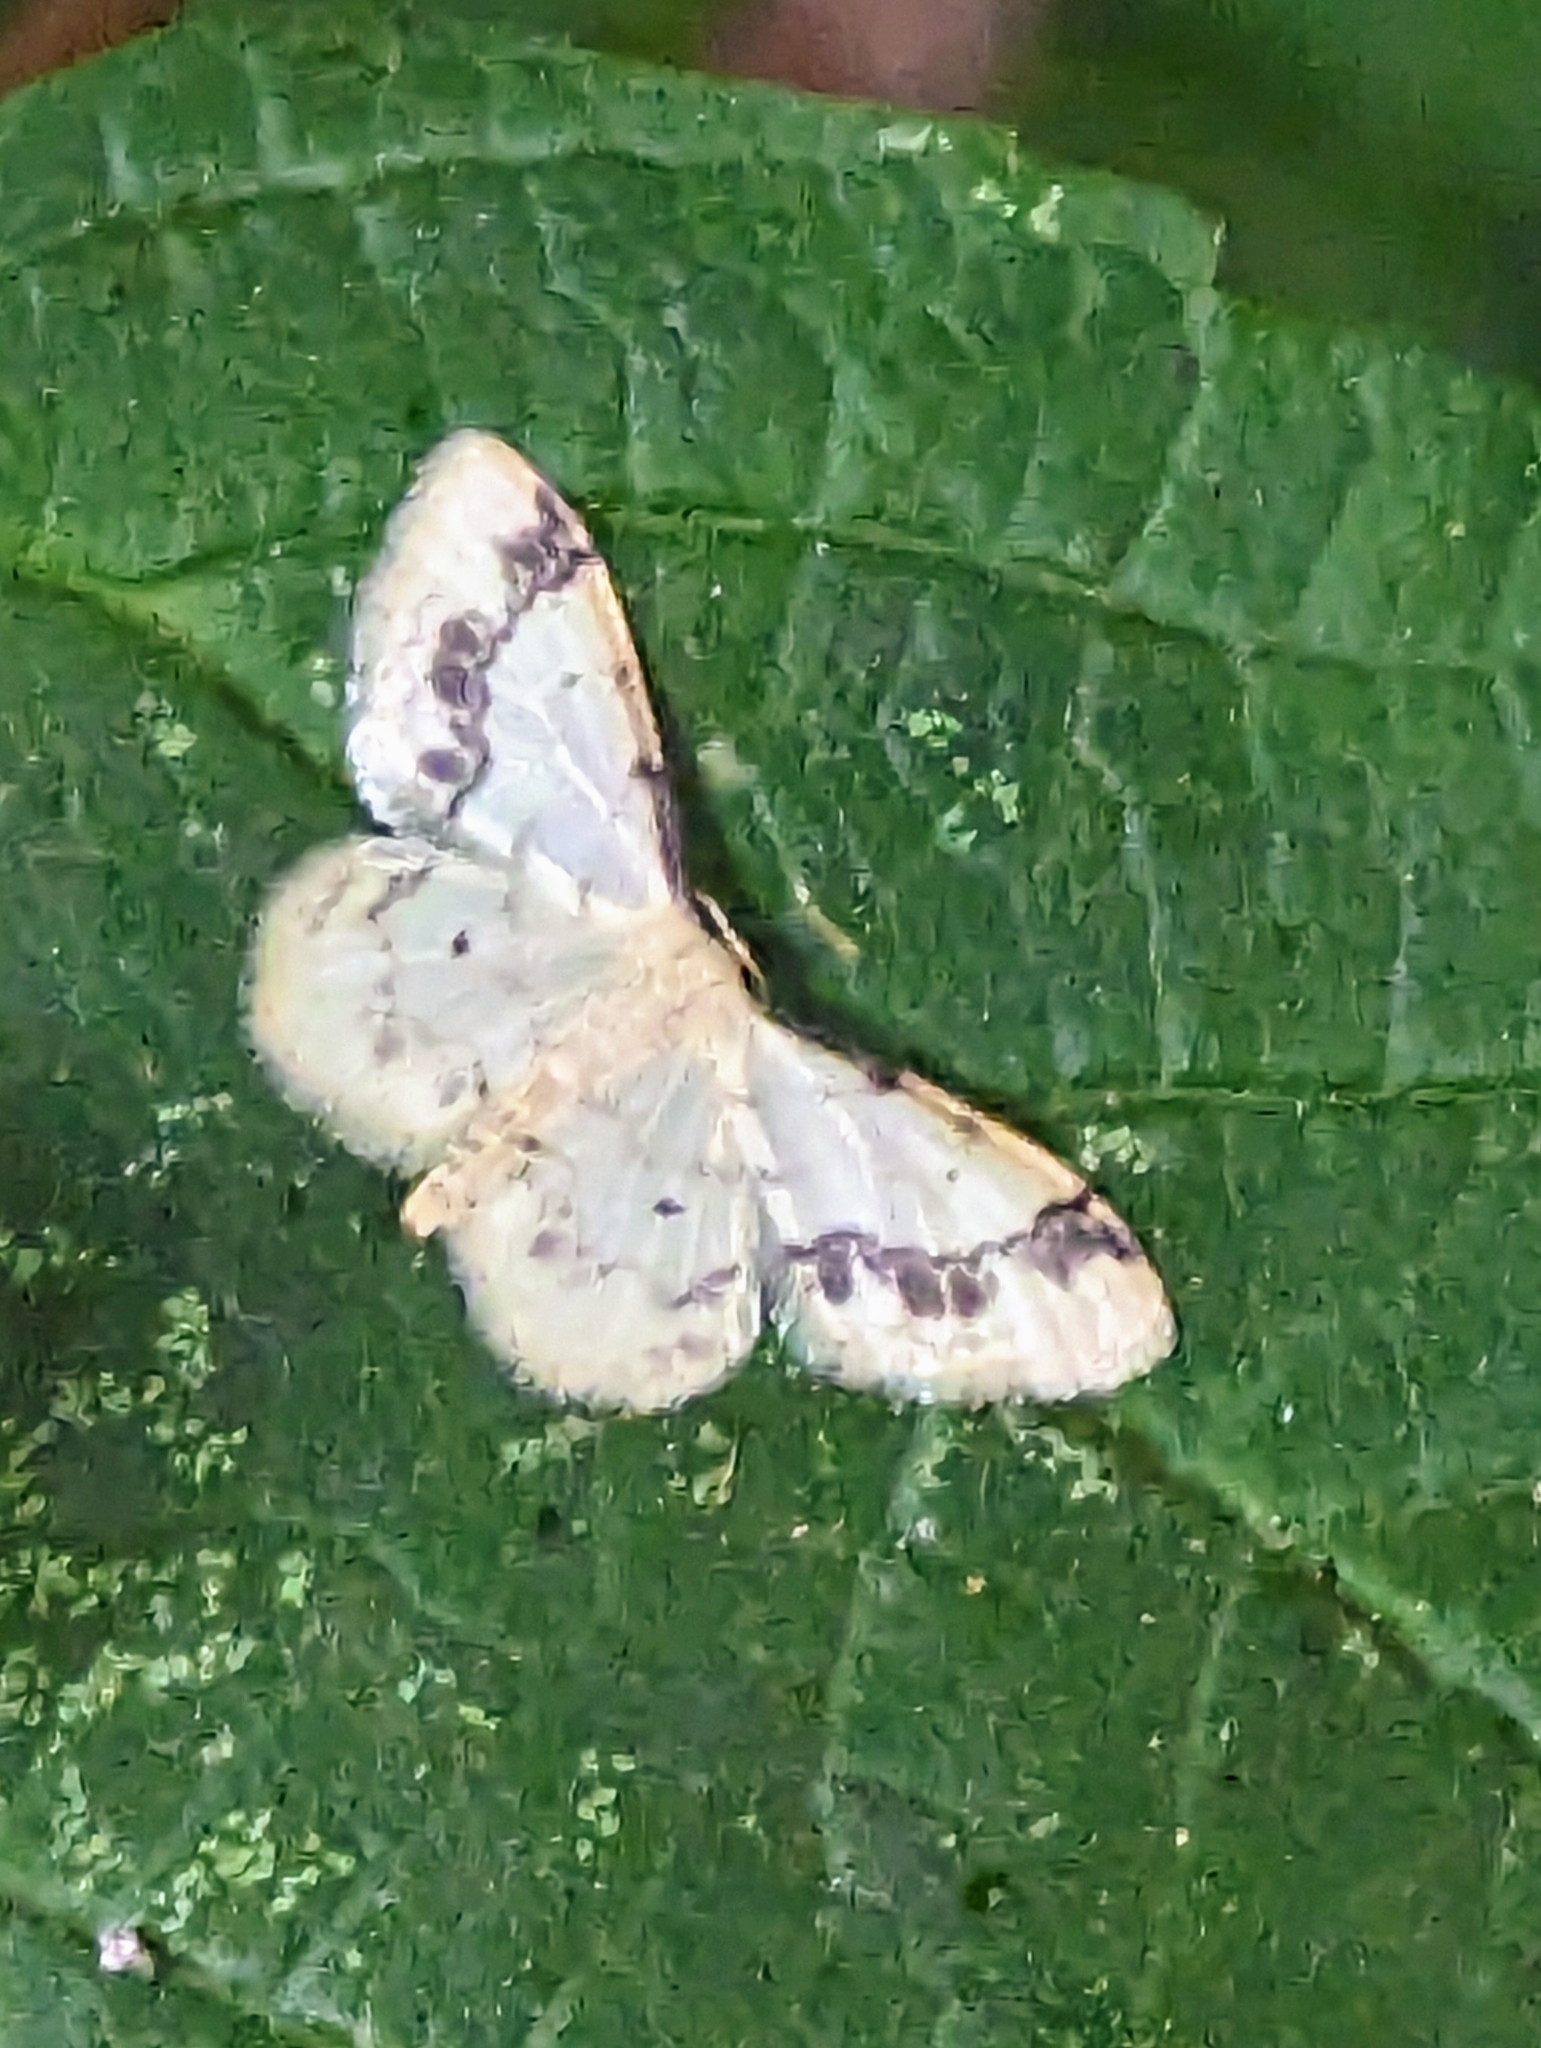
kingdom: Animalia
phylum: Arthropoda
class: Insecta
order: Lepidoptera
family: Geometridae
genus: Idaea
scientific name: Idaea trigeminata
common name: Treble brown spot
